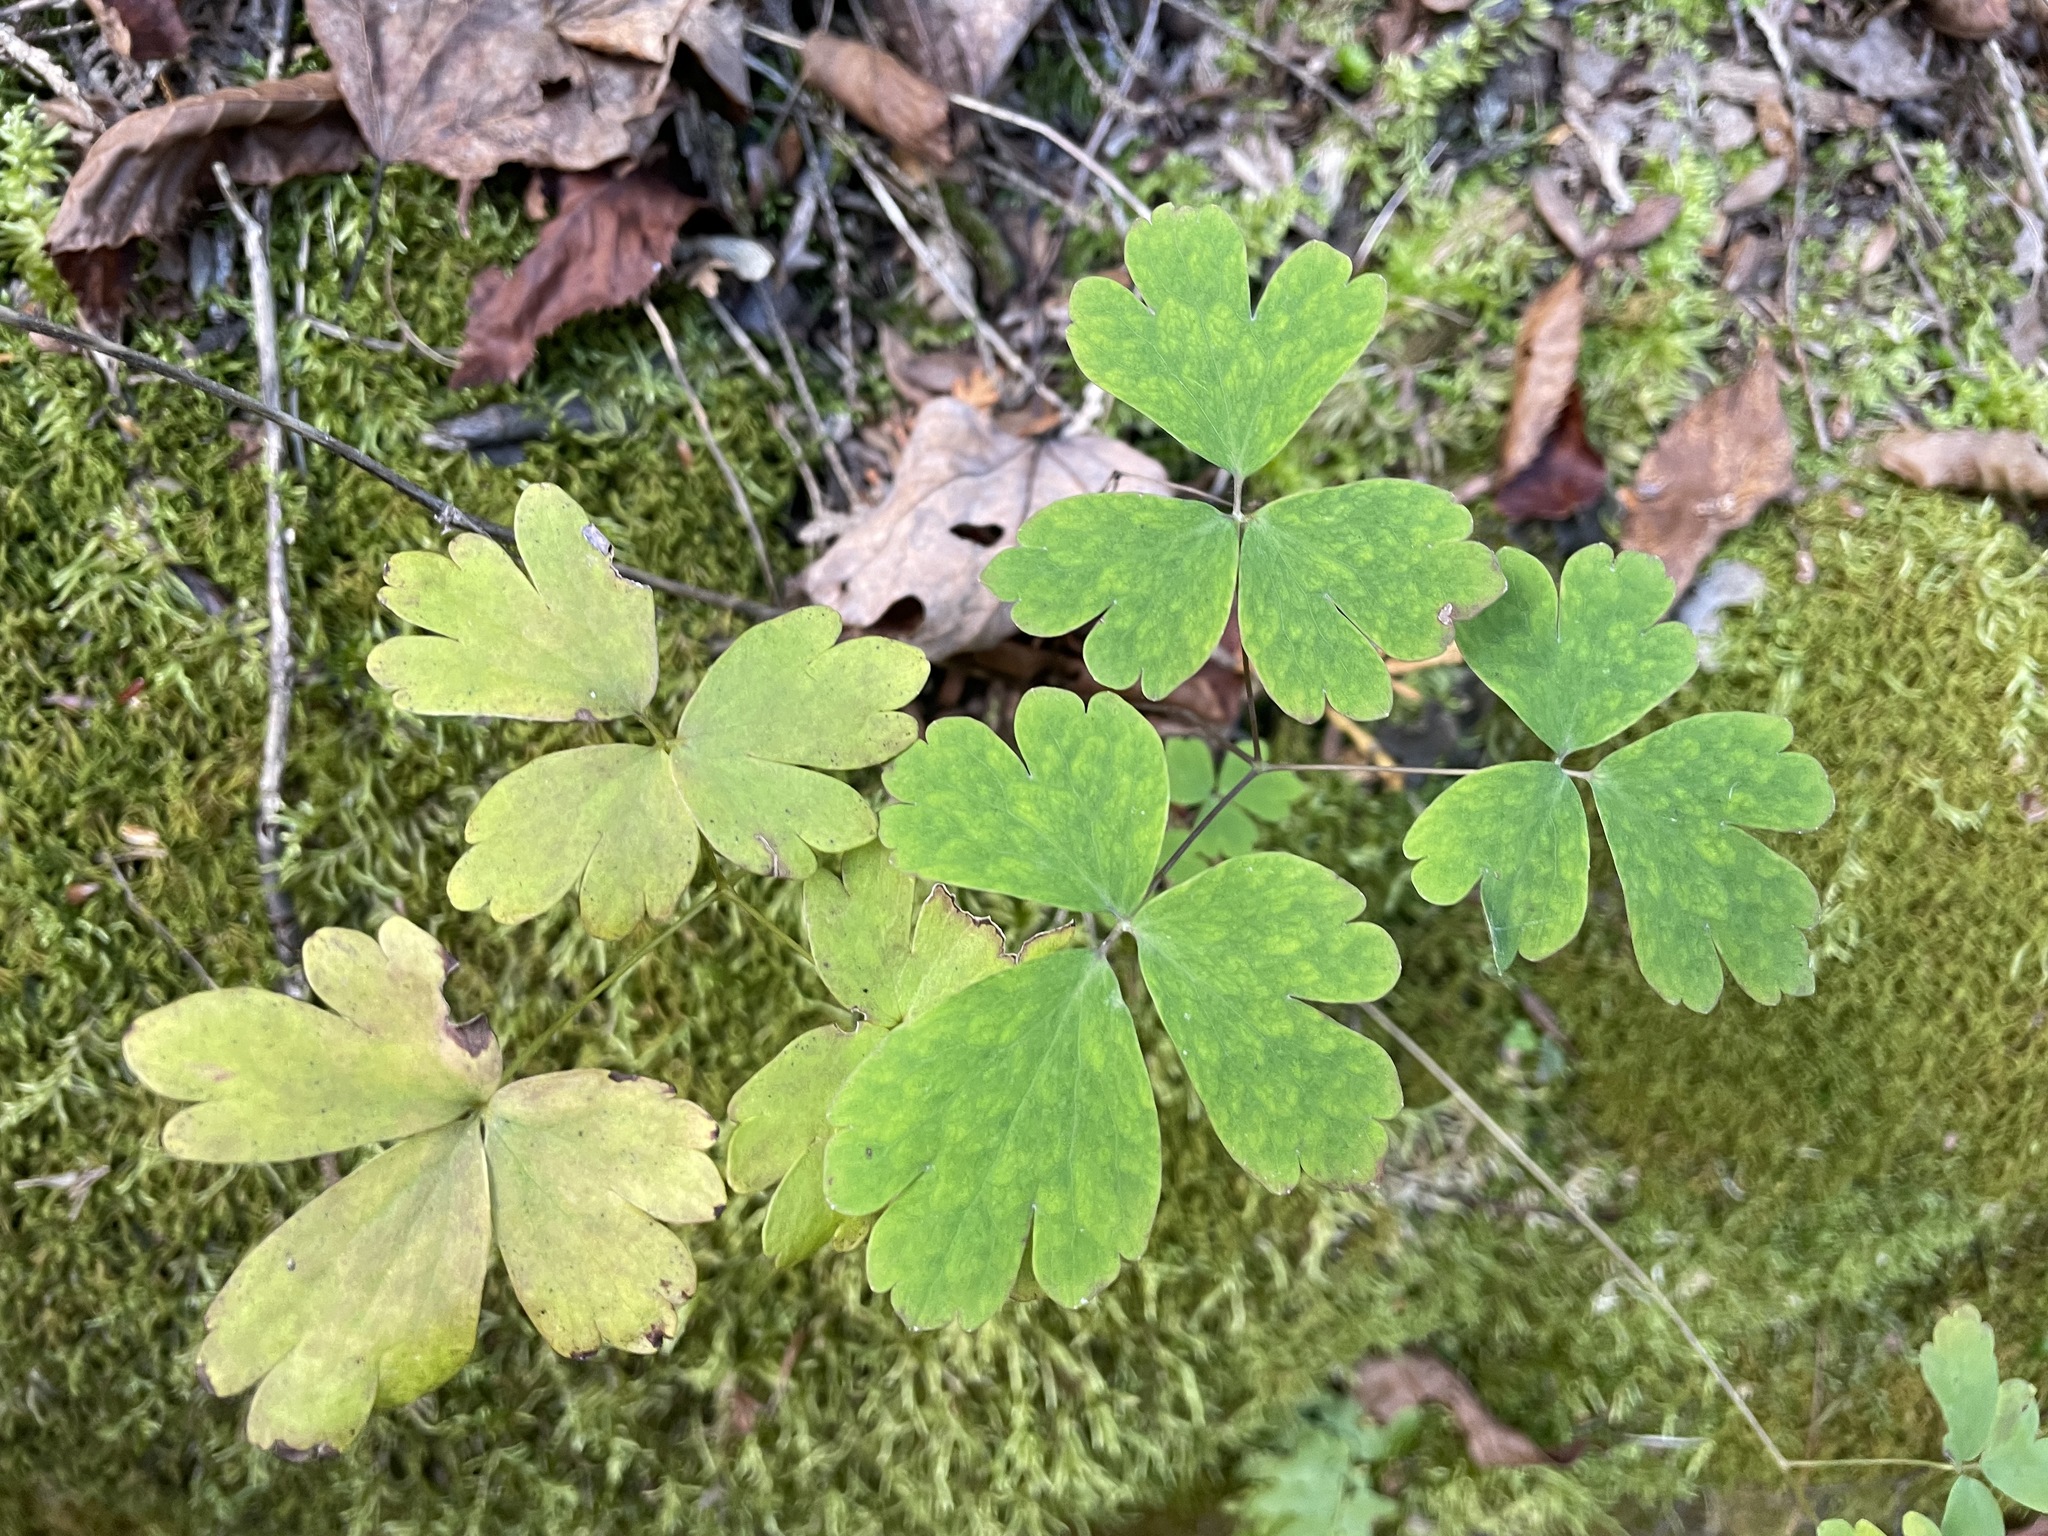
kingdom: Plantae
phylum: Tracheophyta
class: Magnoliopsida
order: Ranunculales
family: Ranunculaceae
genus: Aquilegia
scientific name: Aquilegia canadensis
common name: American columbine
